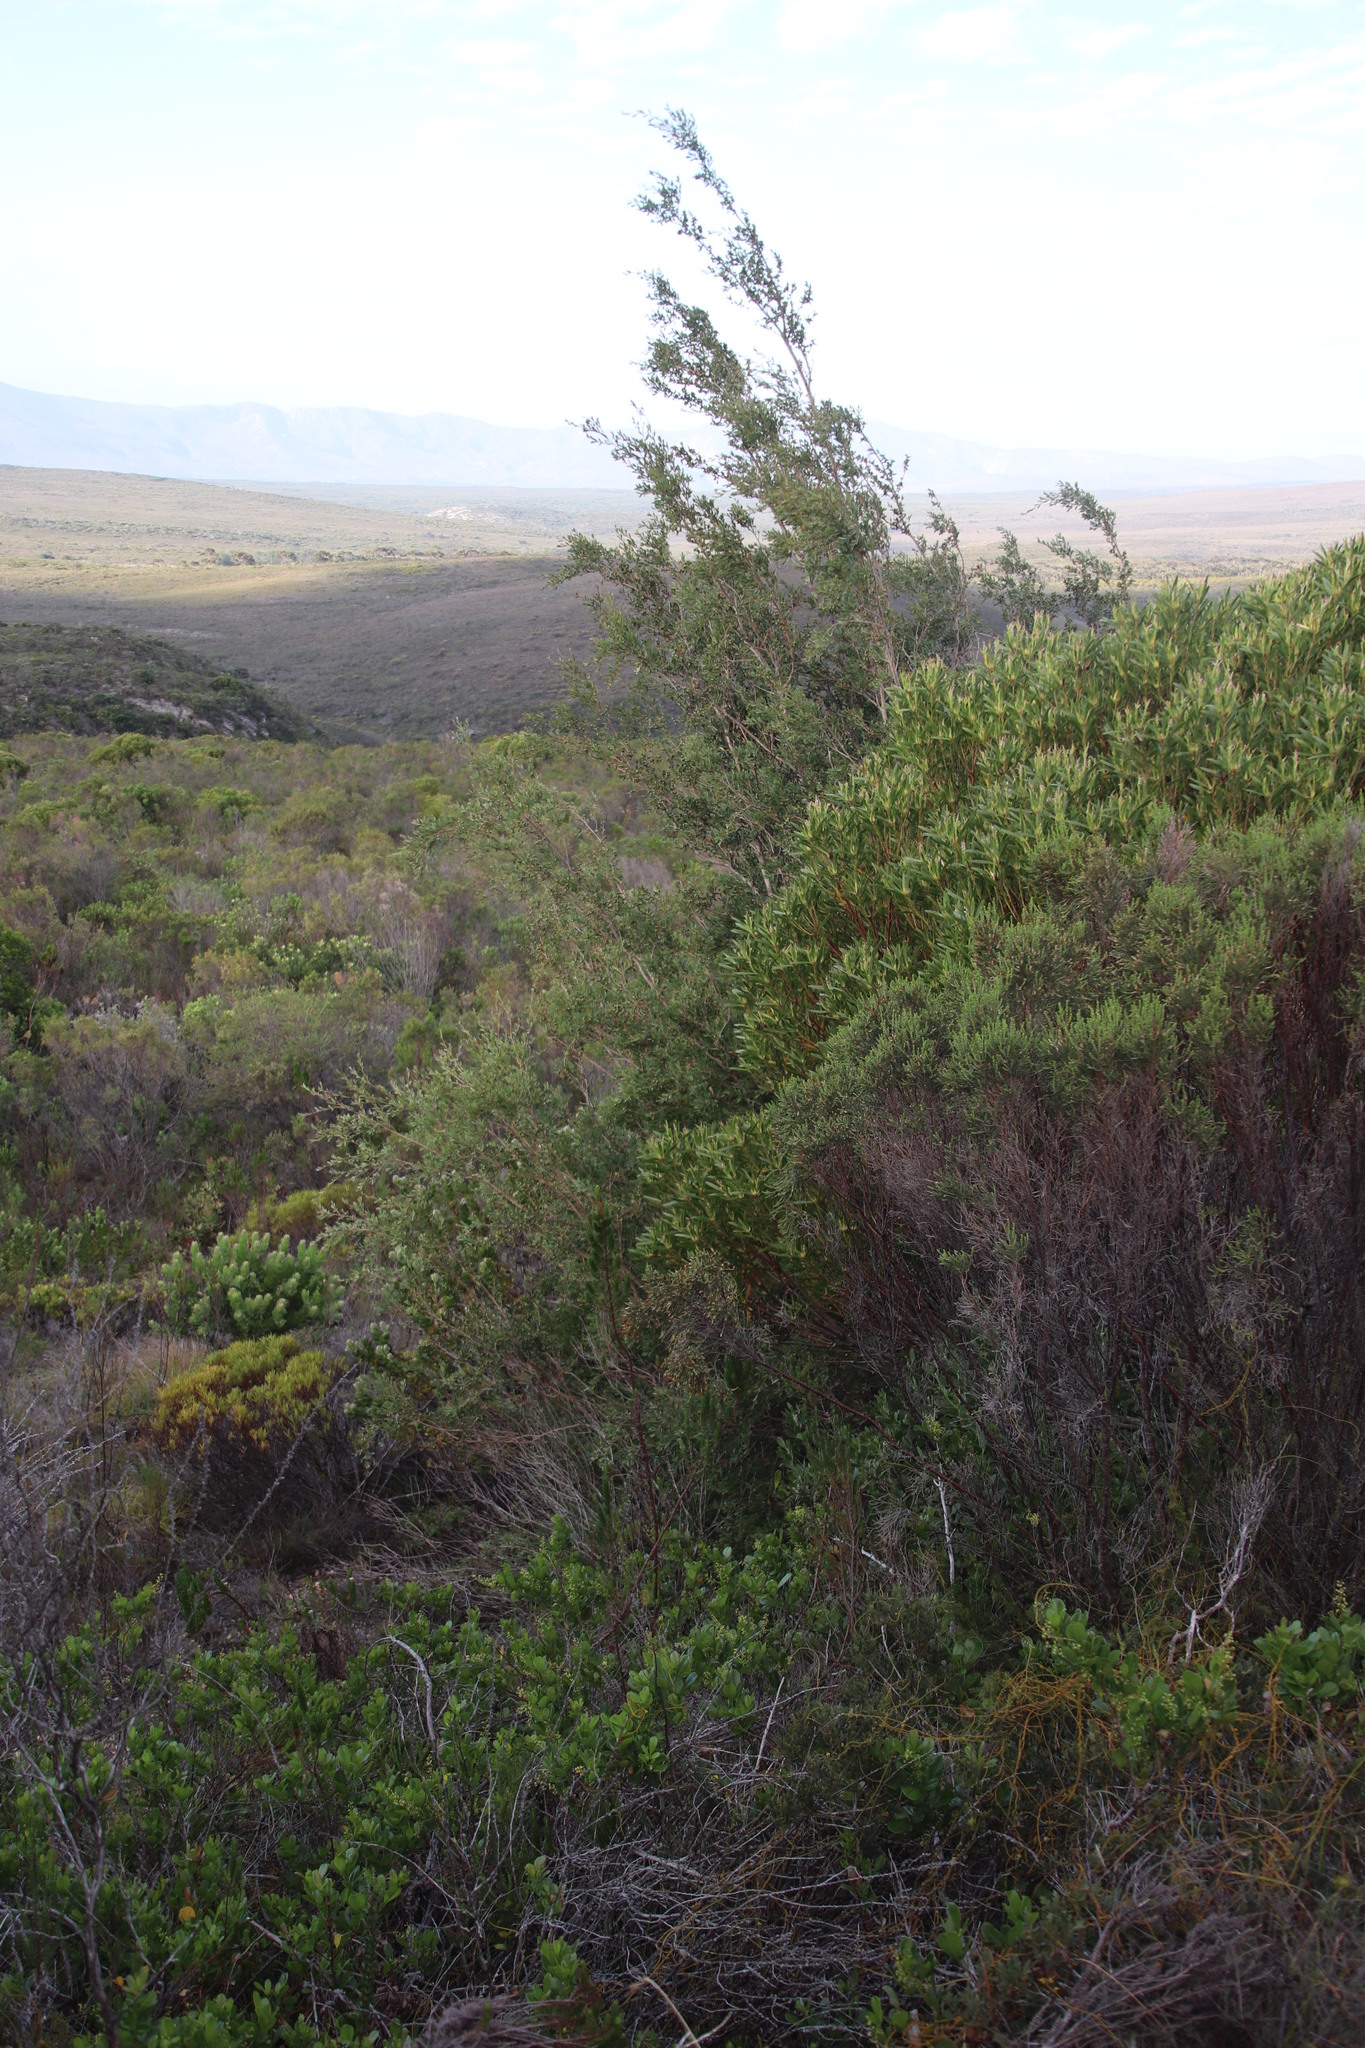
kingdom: Plantae
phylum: Tracheophyta
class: Magnoliopsida
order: Myrtales
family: Myrtaceae
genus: Leptospermum
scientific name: Leptospermum laevigatum
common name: Australian teatree
